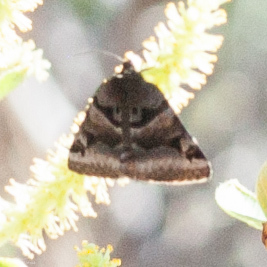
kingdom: Animalia
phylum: Arthropoda
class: Insecta
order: Lepidoptera
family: Erebidae
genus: Euclidia
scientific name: Euclidia ardita
